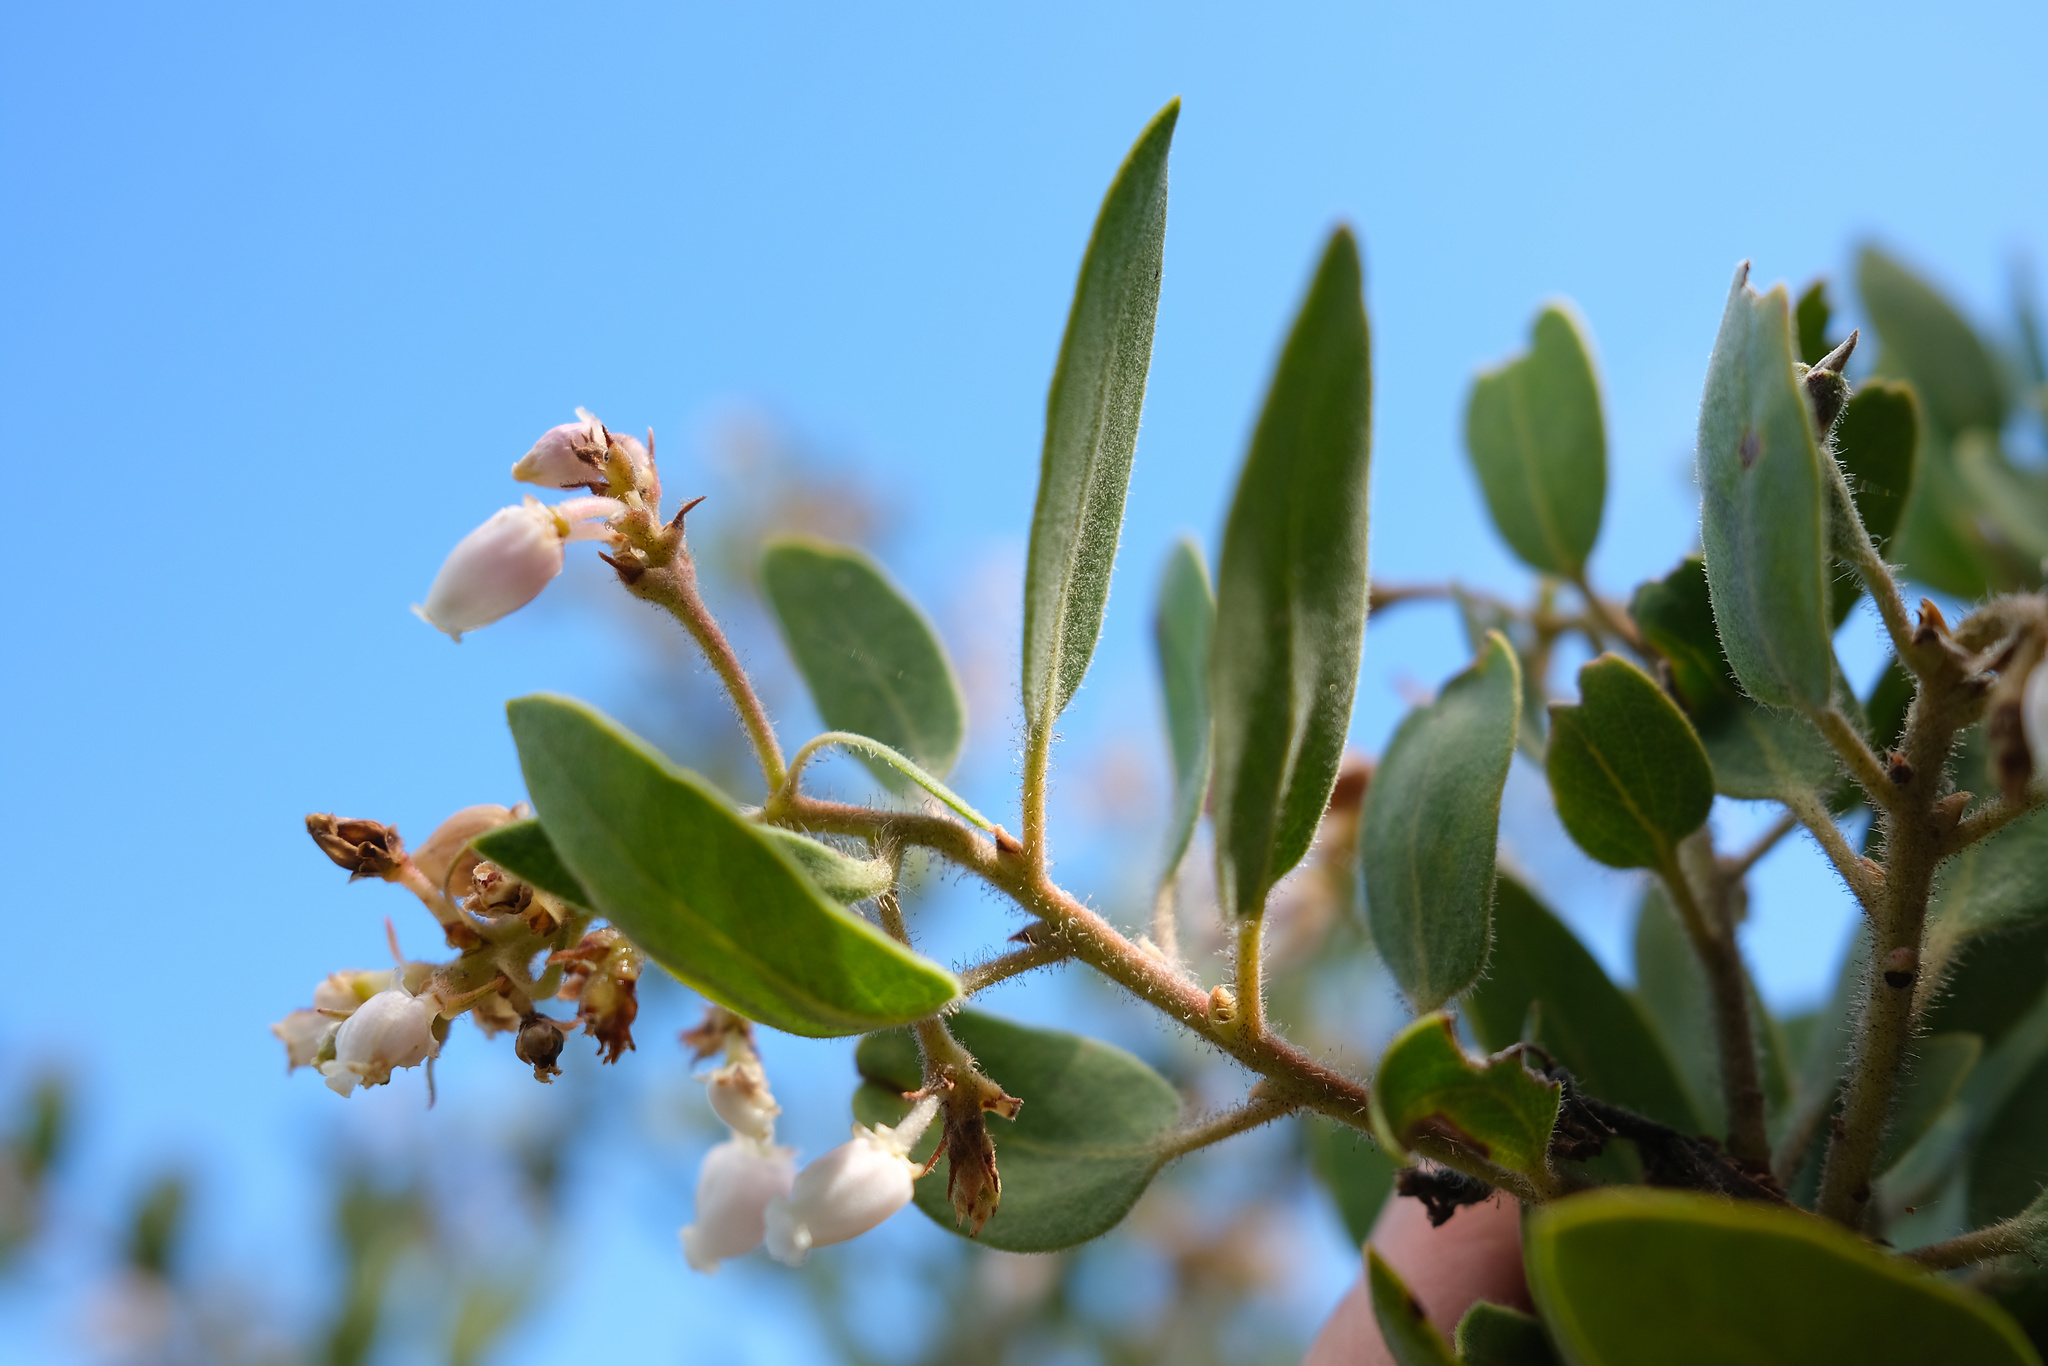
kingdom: Plantae
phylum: Tracheophyta
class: Magnoliopsida
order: Ericales
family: Ericaceae
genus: Arctostaphylos
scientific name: Arctostaphylos glandulosa
